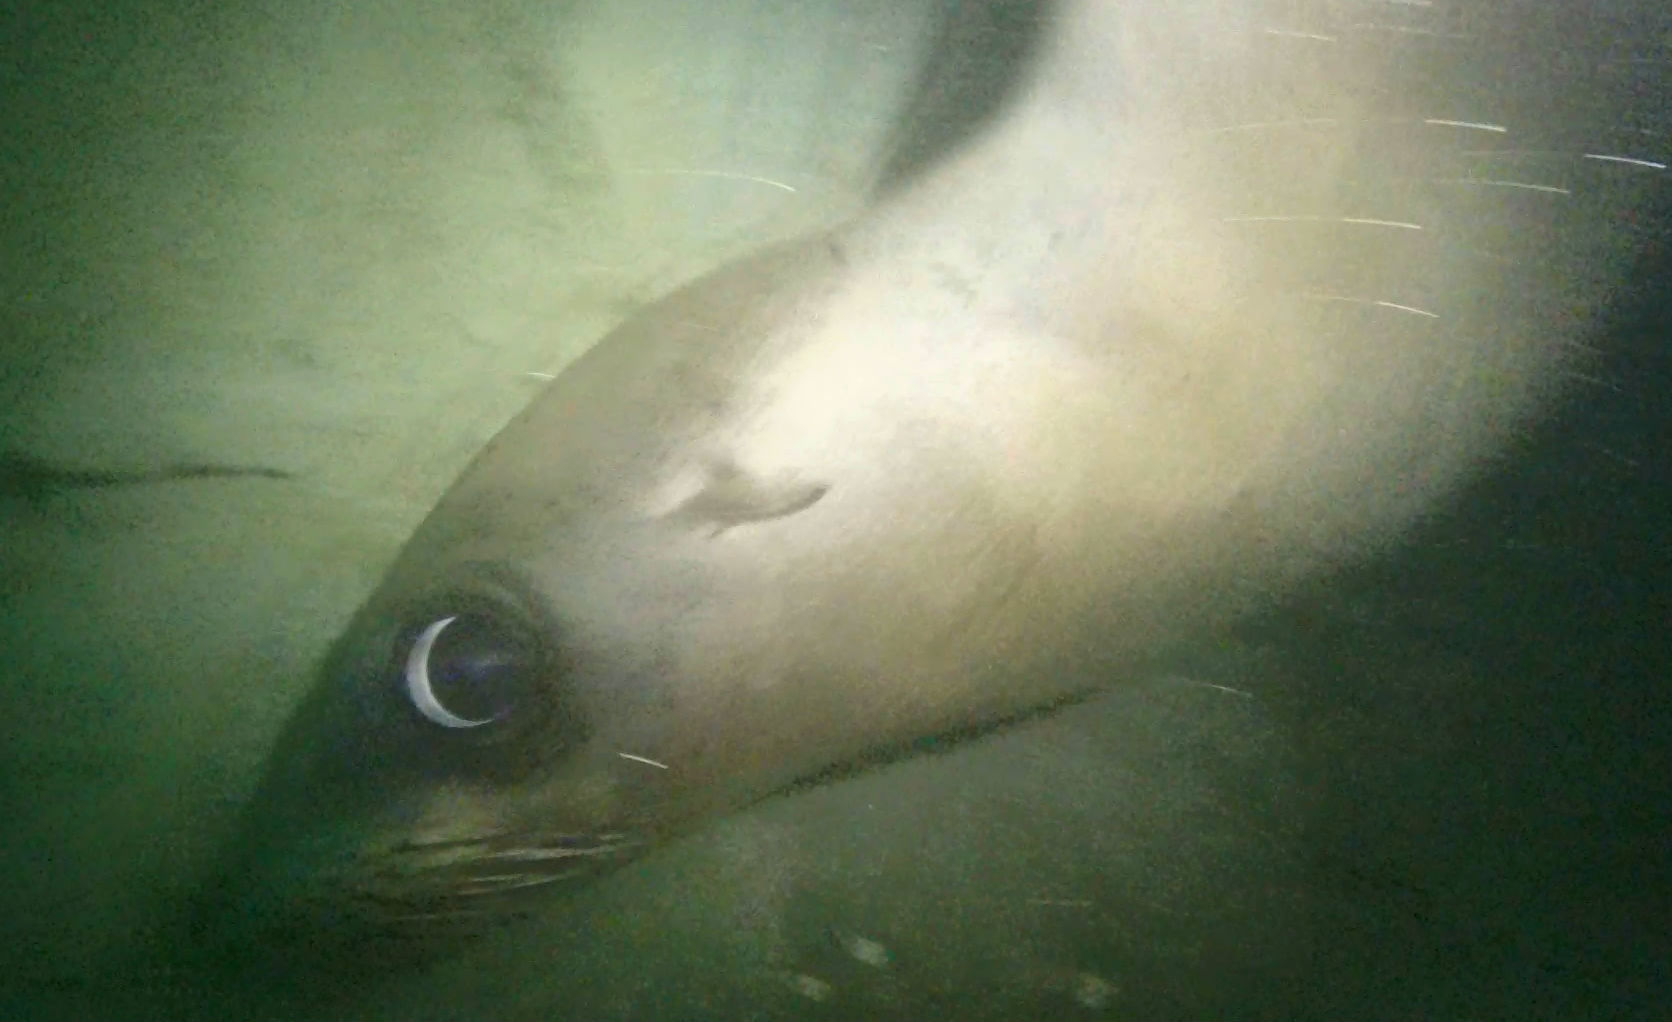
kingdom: Animalia
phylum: Chordata
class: Mammalia
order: Carnivora
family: Otariidae
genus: Zalophus
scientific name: Zalophus californianus
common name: California sea lion
